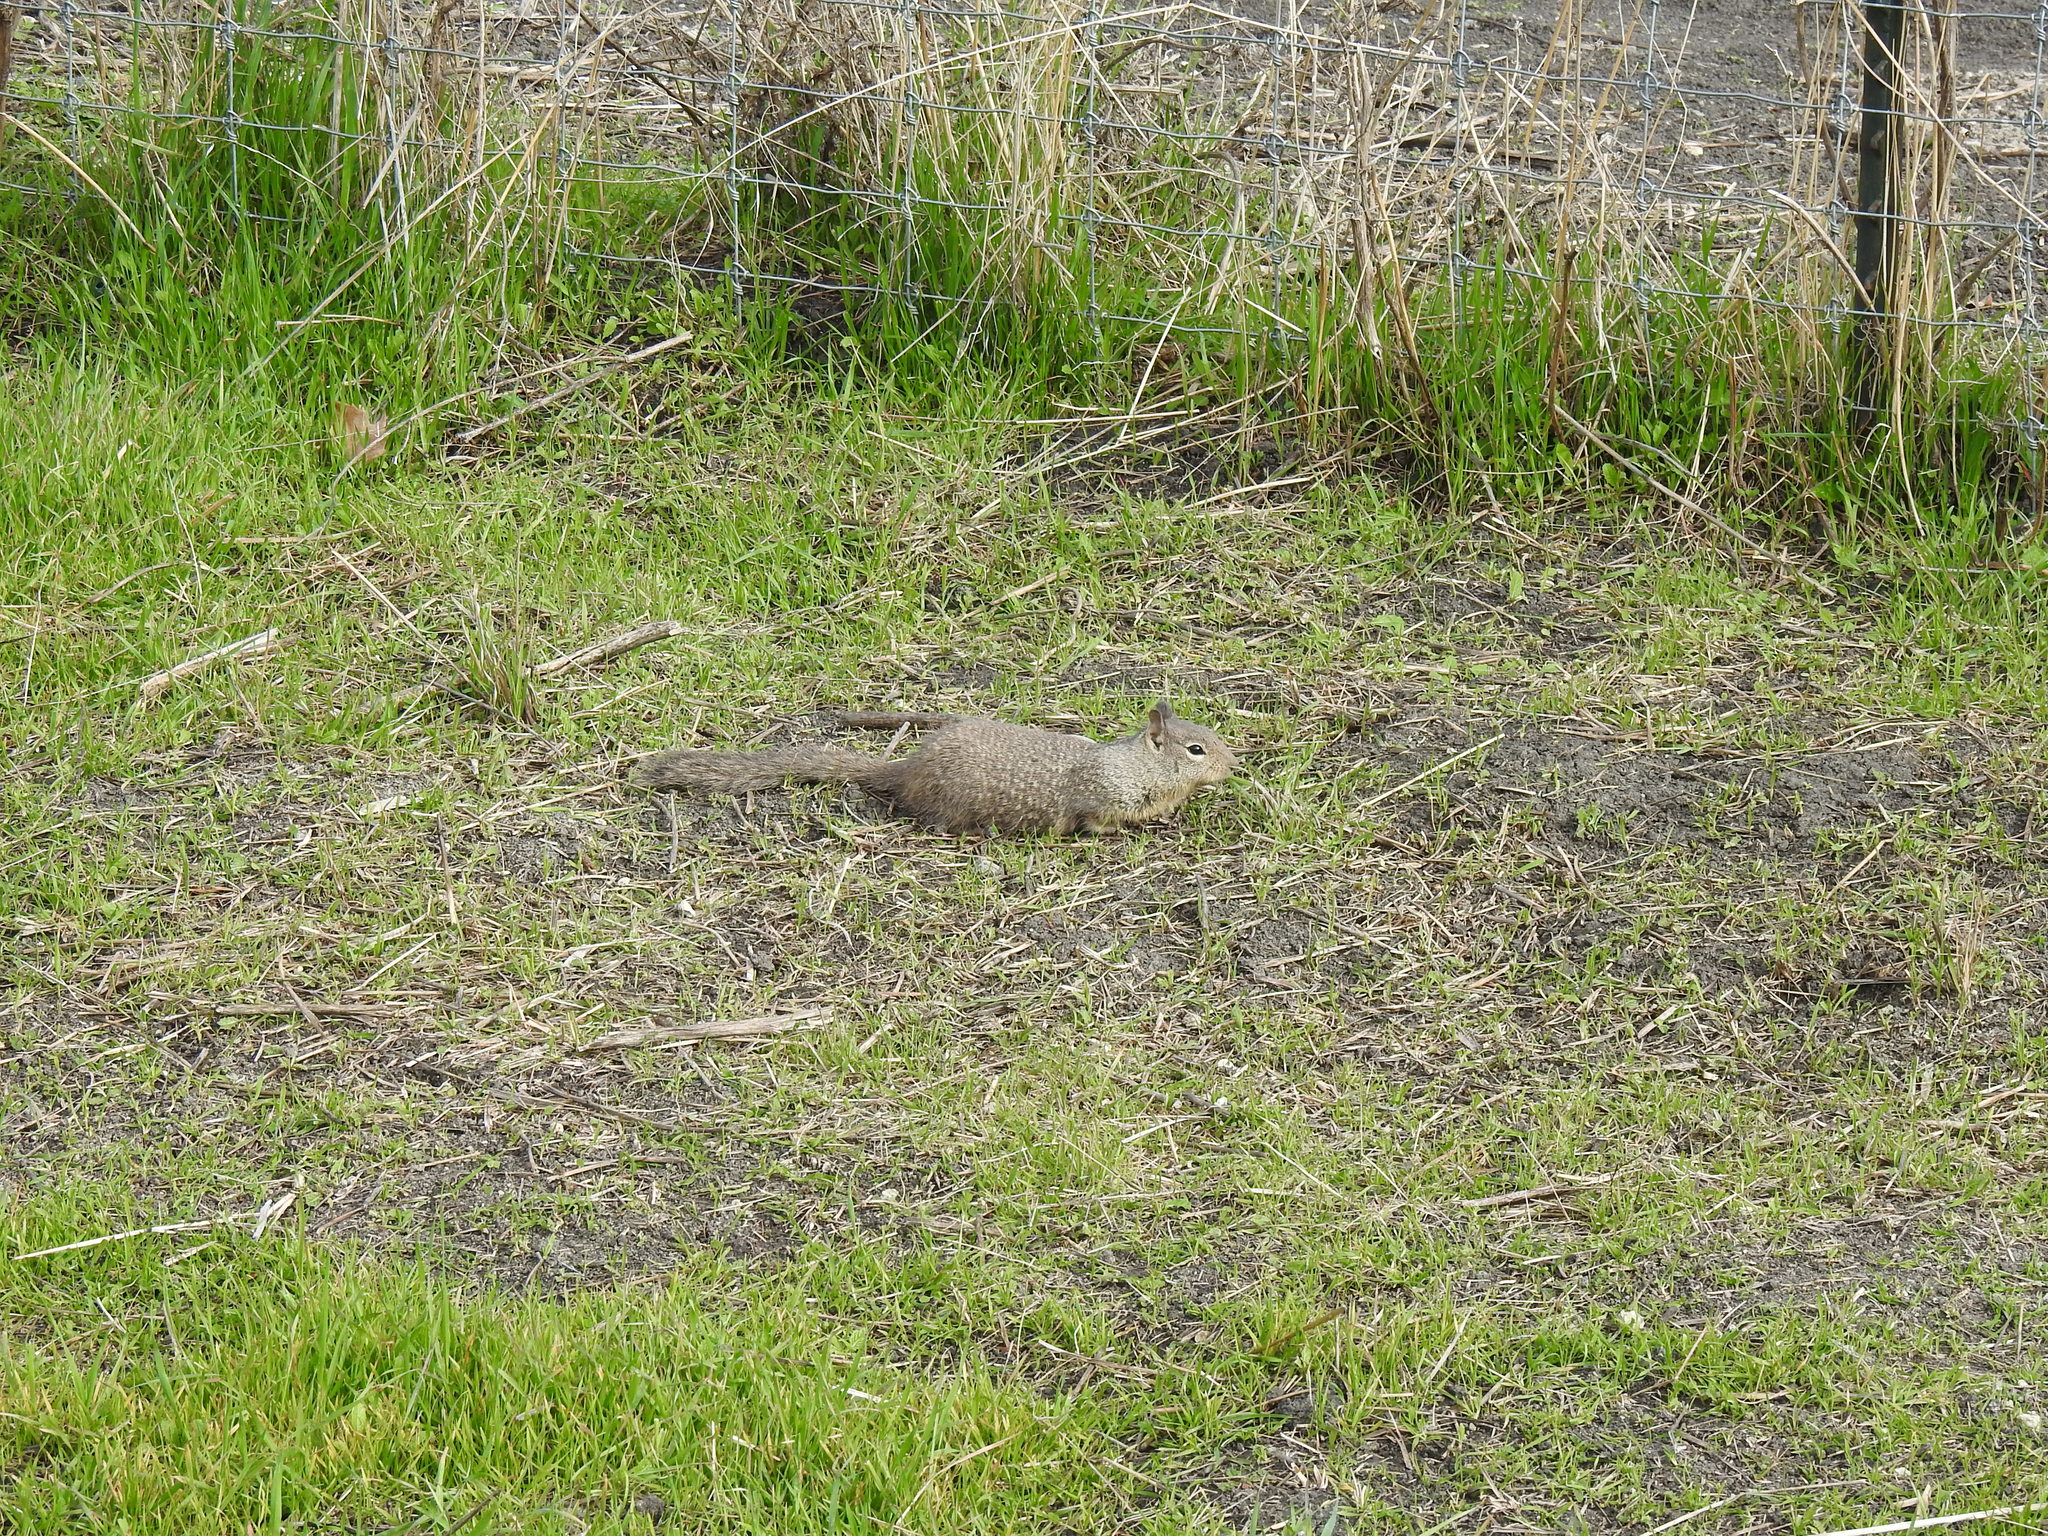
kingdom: Animalia
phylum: Chordata
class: Mammalia
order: Rodentia
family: Sciuridae
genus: Otospermophilus
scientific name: Otospermophilus beecheyi
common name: California ground squirrel
